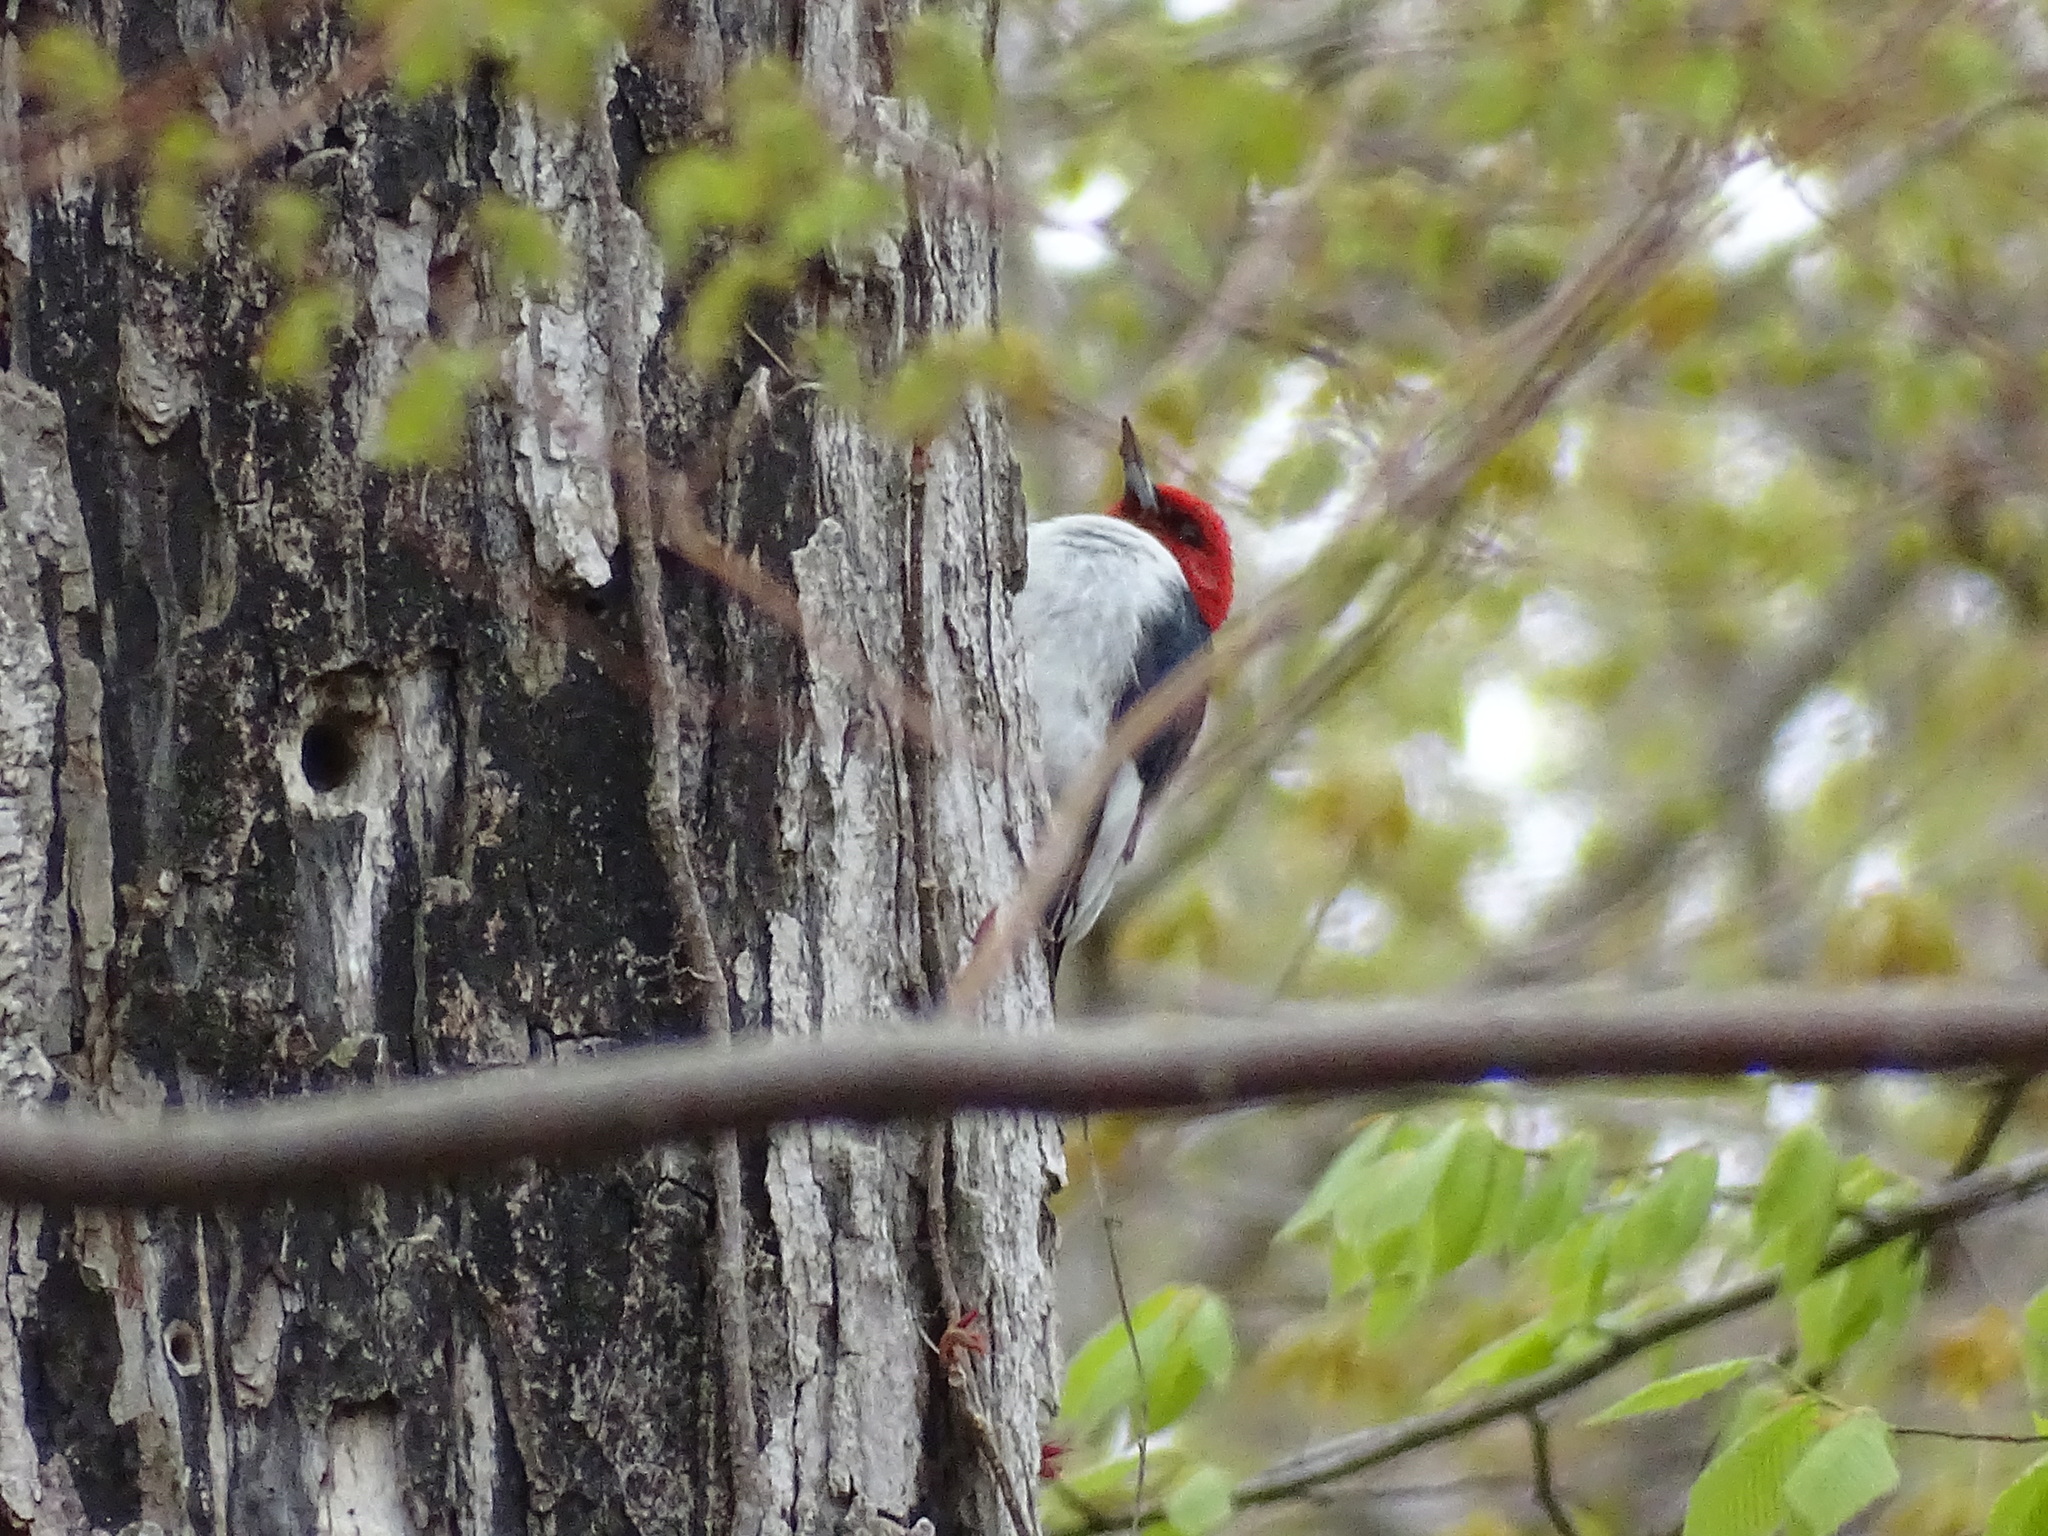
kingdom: Animalia
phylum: Chordata
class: Aves
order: Piciformes
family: Picidae
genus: Melanerpes
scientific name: Melanerpes erythrocephalus
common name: Red-headed woodpecker
